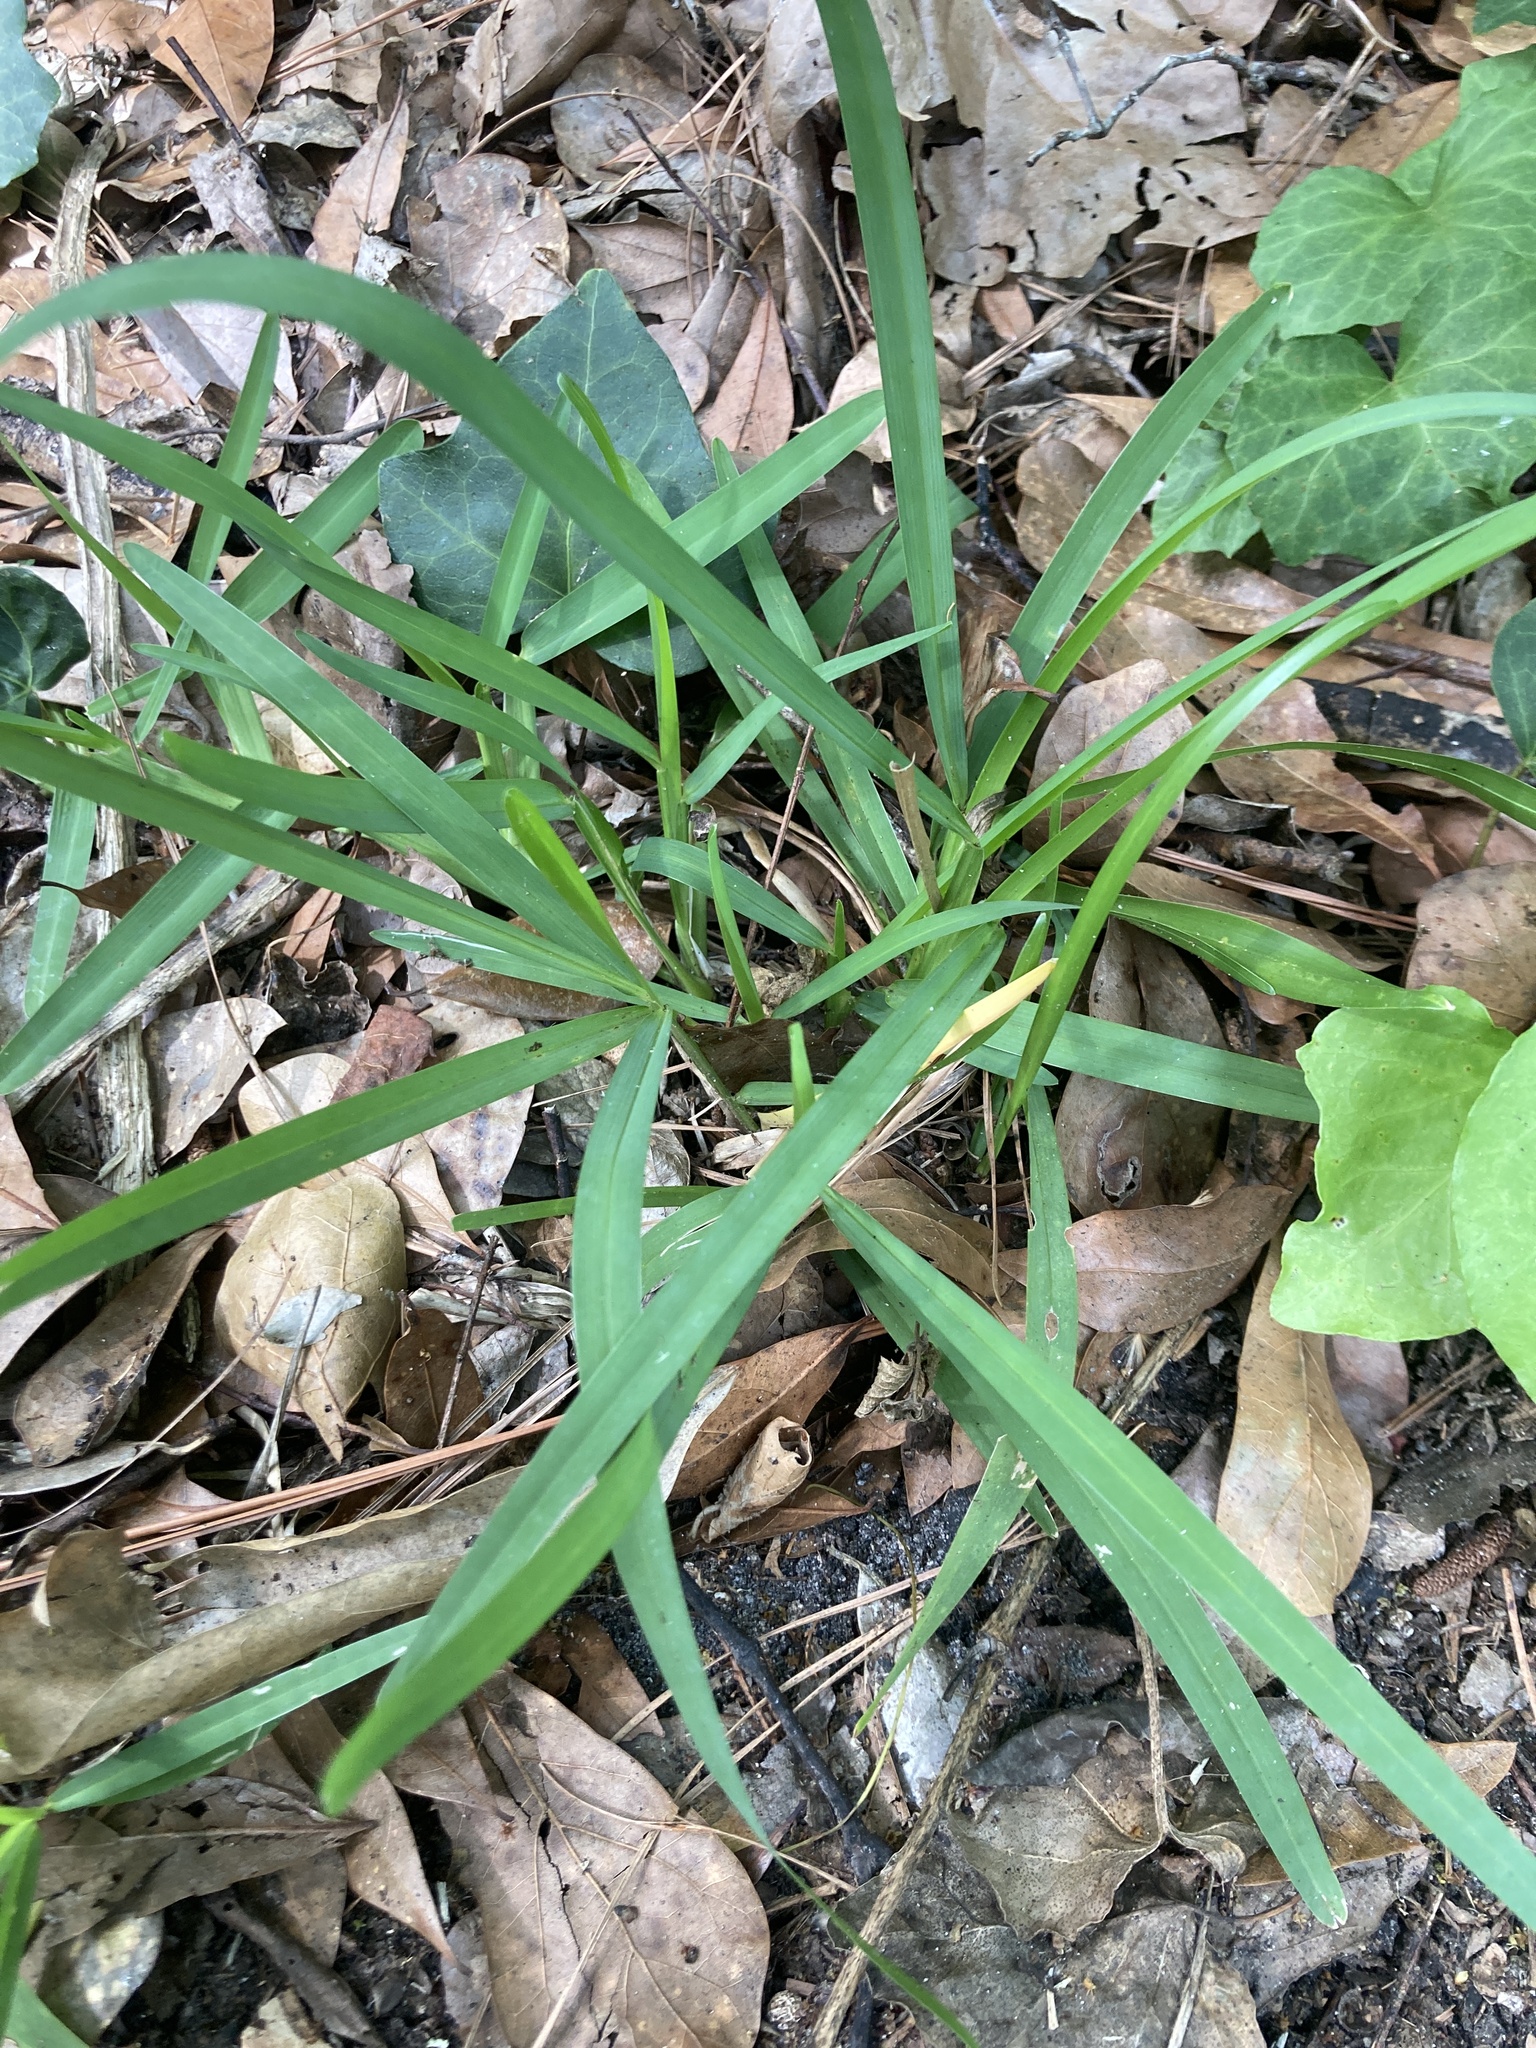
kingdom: Plantae
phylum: Tracheophyta
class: Liliopsida
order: Poales
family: Poaceae
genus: Stenotaphrum
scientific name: Stenotaphrum secundatum
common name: St. augustine grass
